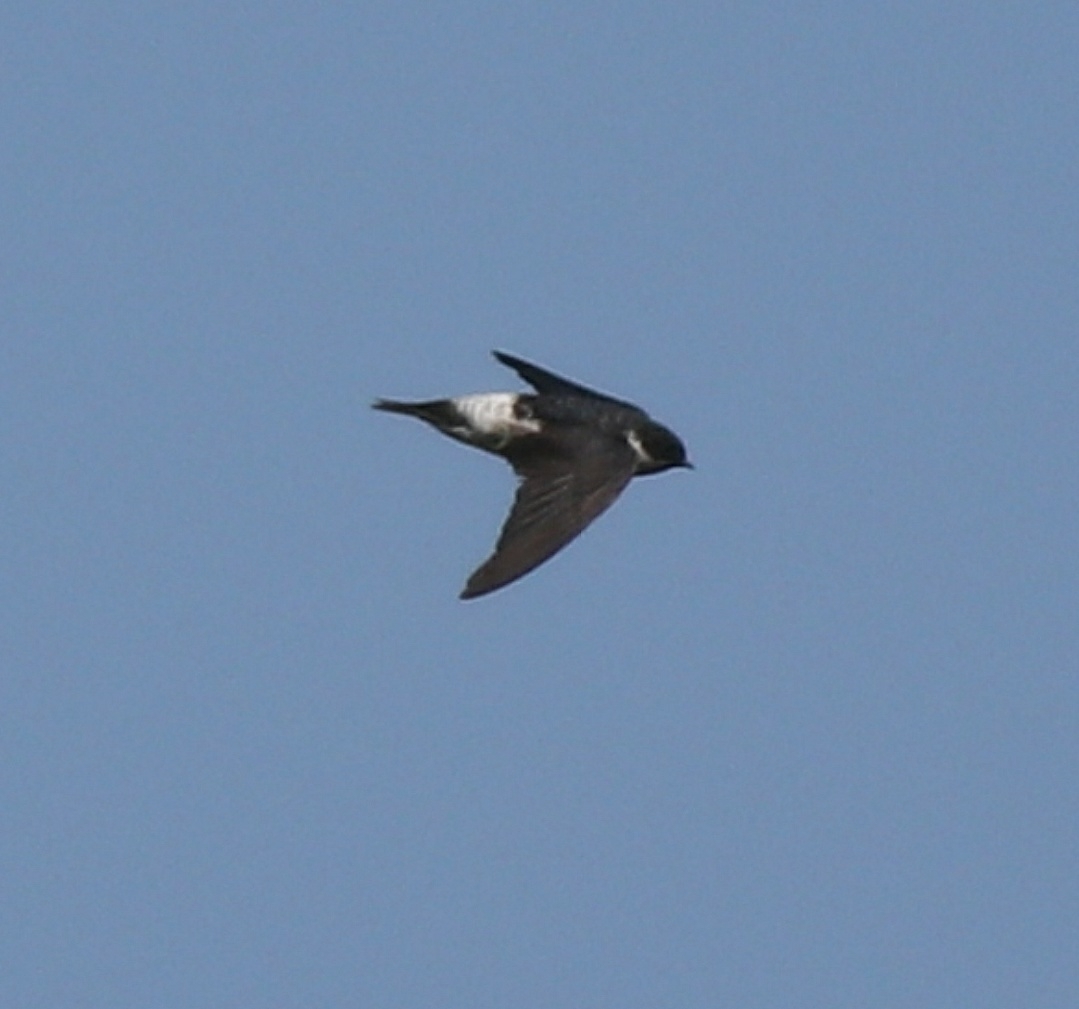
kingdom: Animalia
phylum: Chordata
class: Aves
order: Passeriformes
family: Hirundinidae
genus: Delichon
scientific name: Delichon dasypus
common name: Asian house martin
